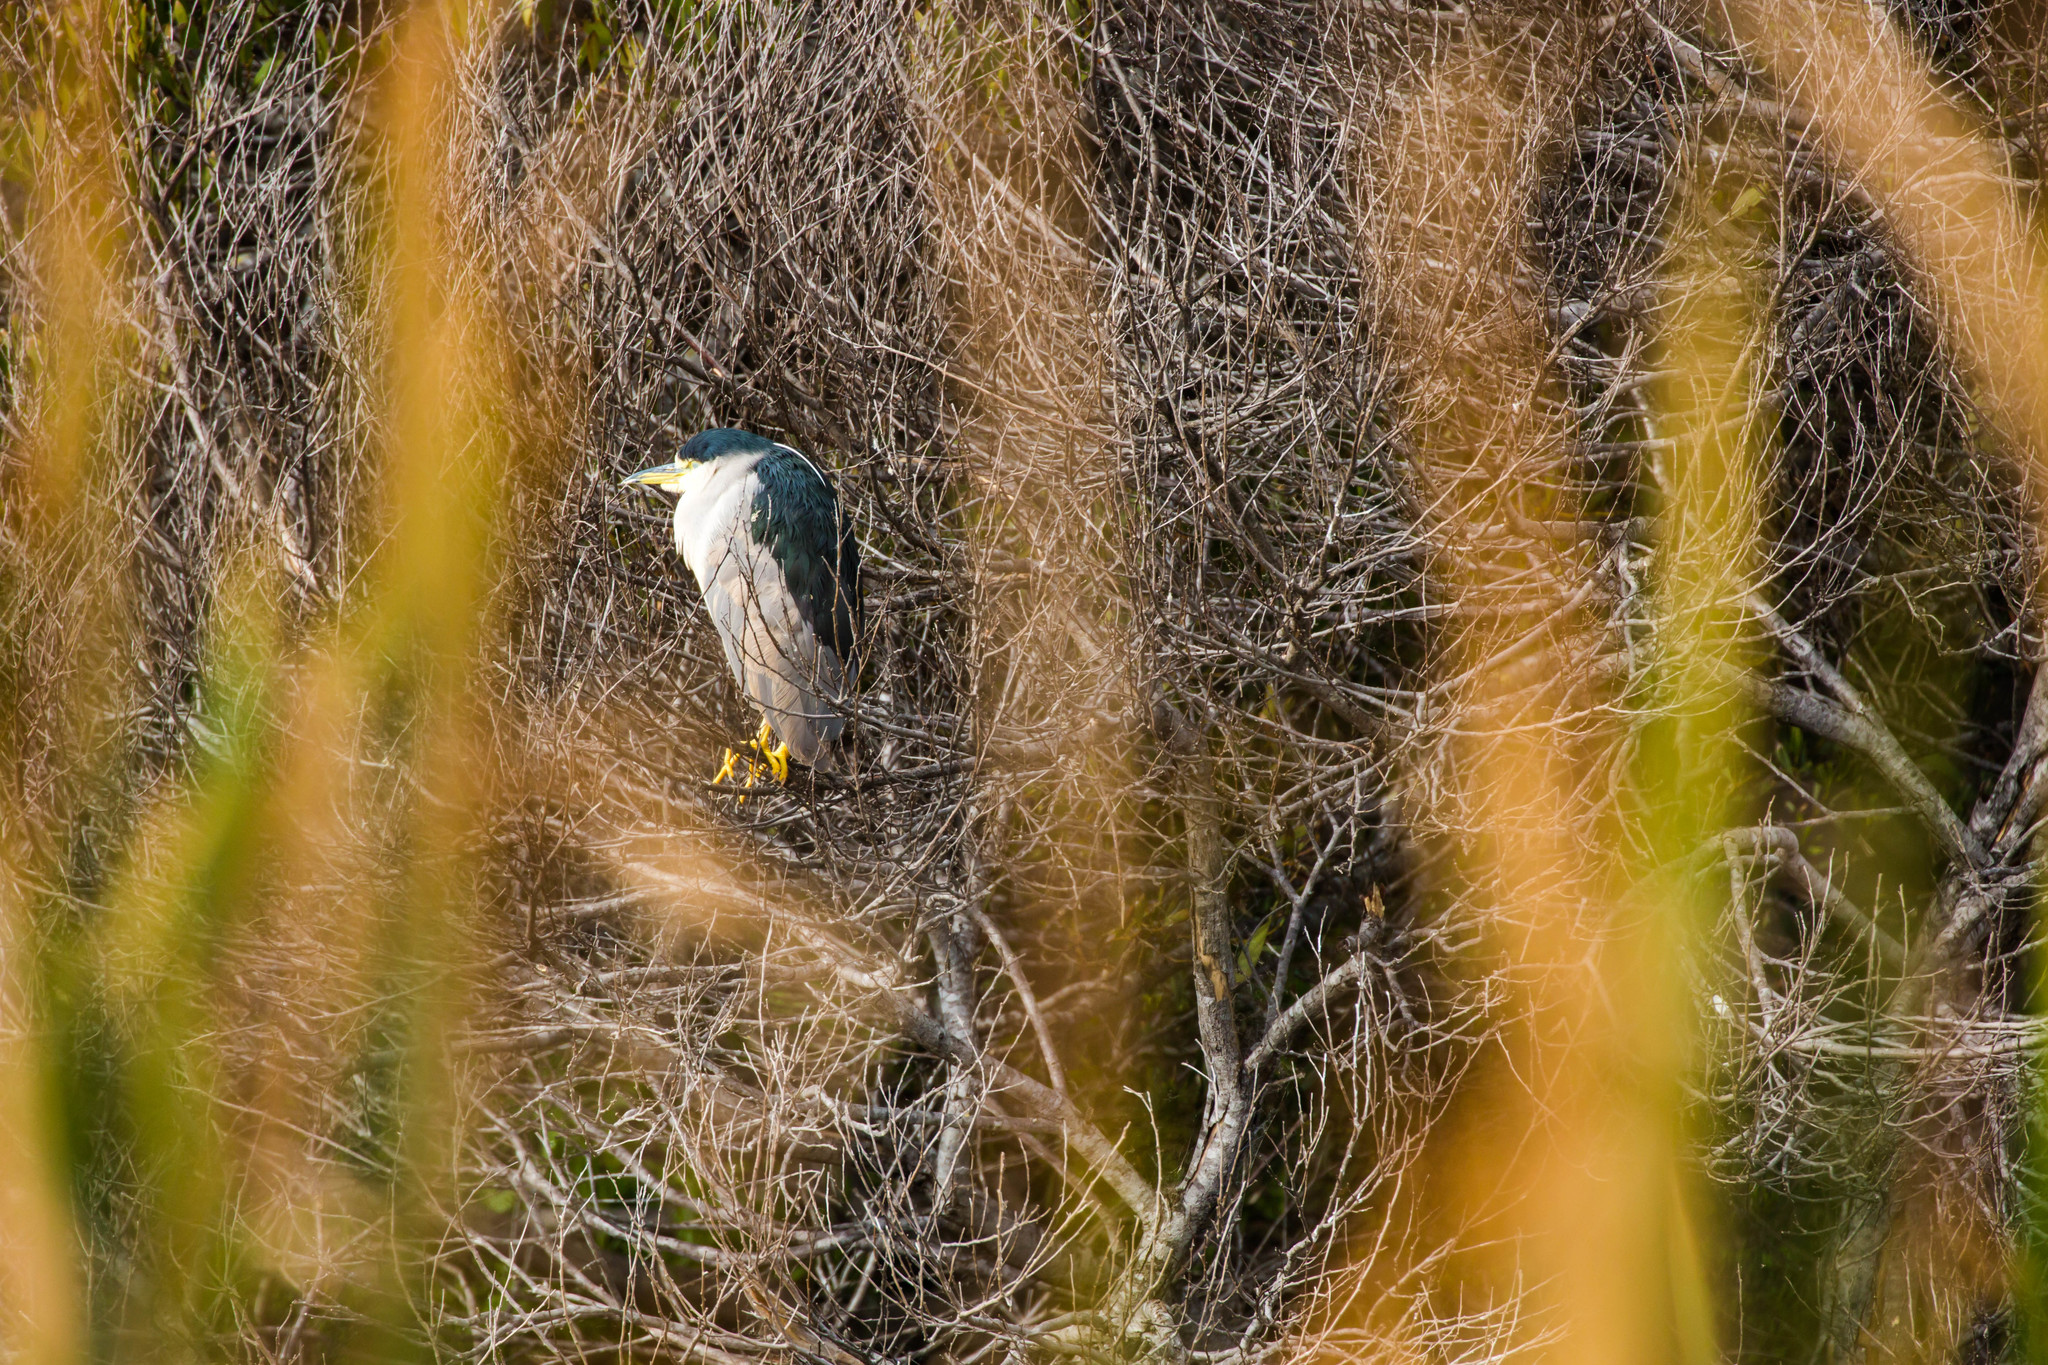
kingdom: Animalia
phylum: Chordata
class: Aves
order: Pelecaniformes
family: Ardeidae
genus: Nycticorax
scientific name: Nycticorax nycticorax
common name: Black-crowned night heron
